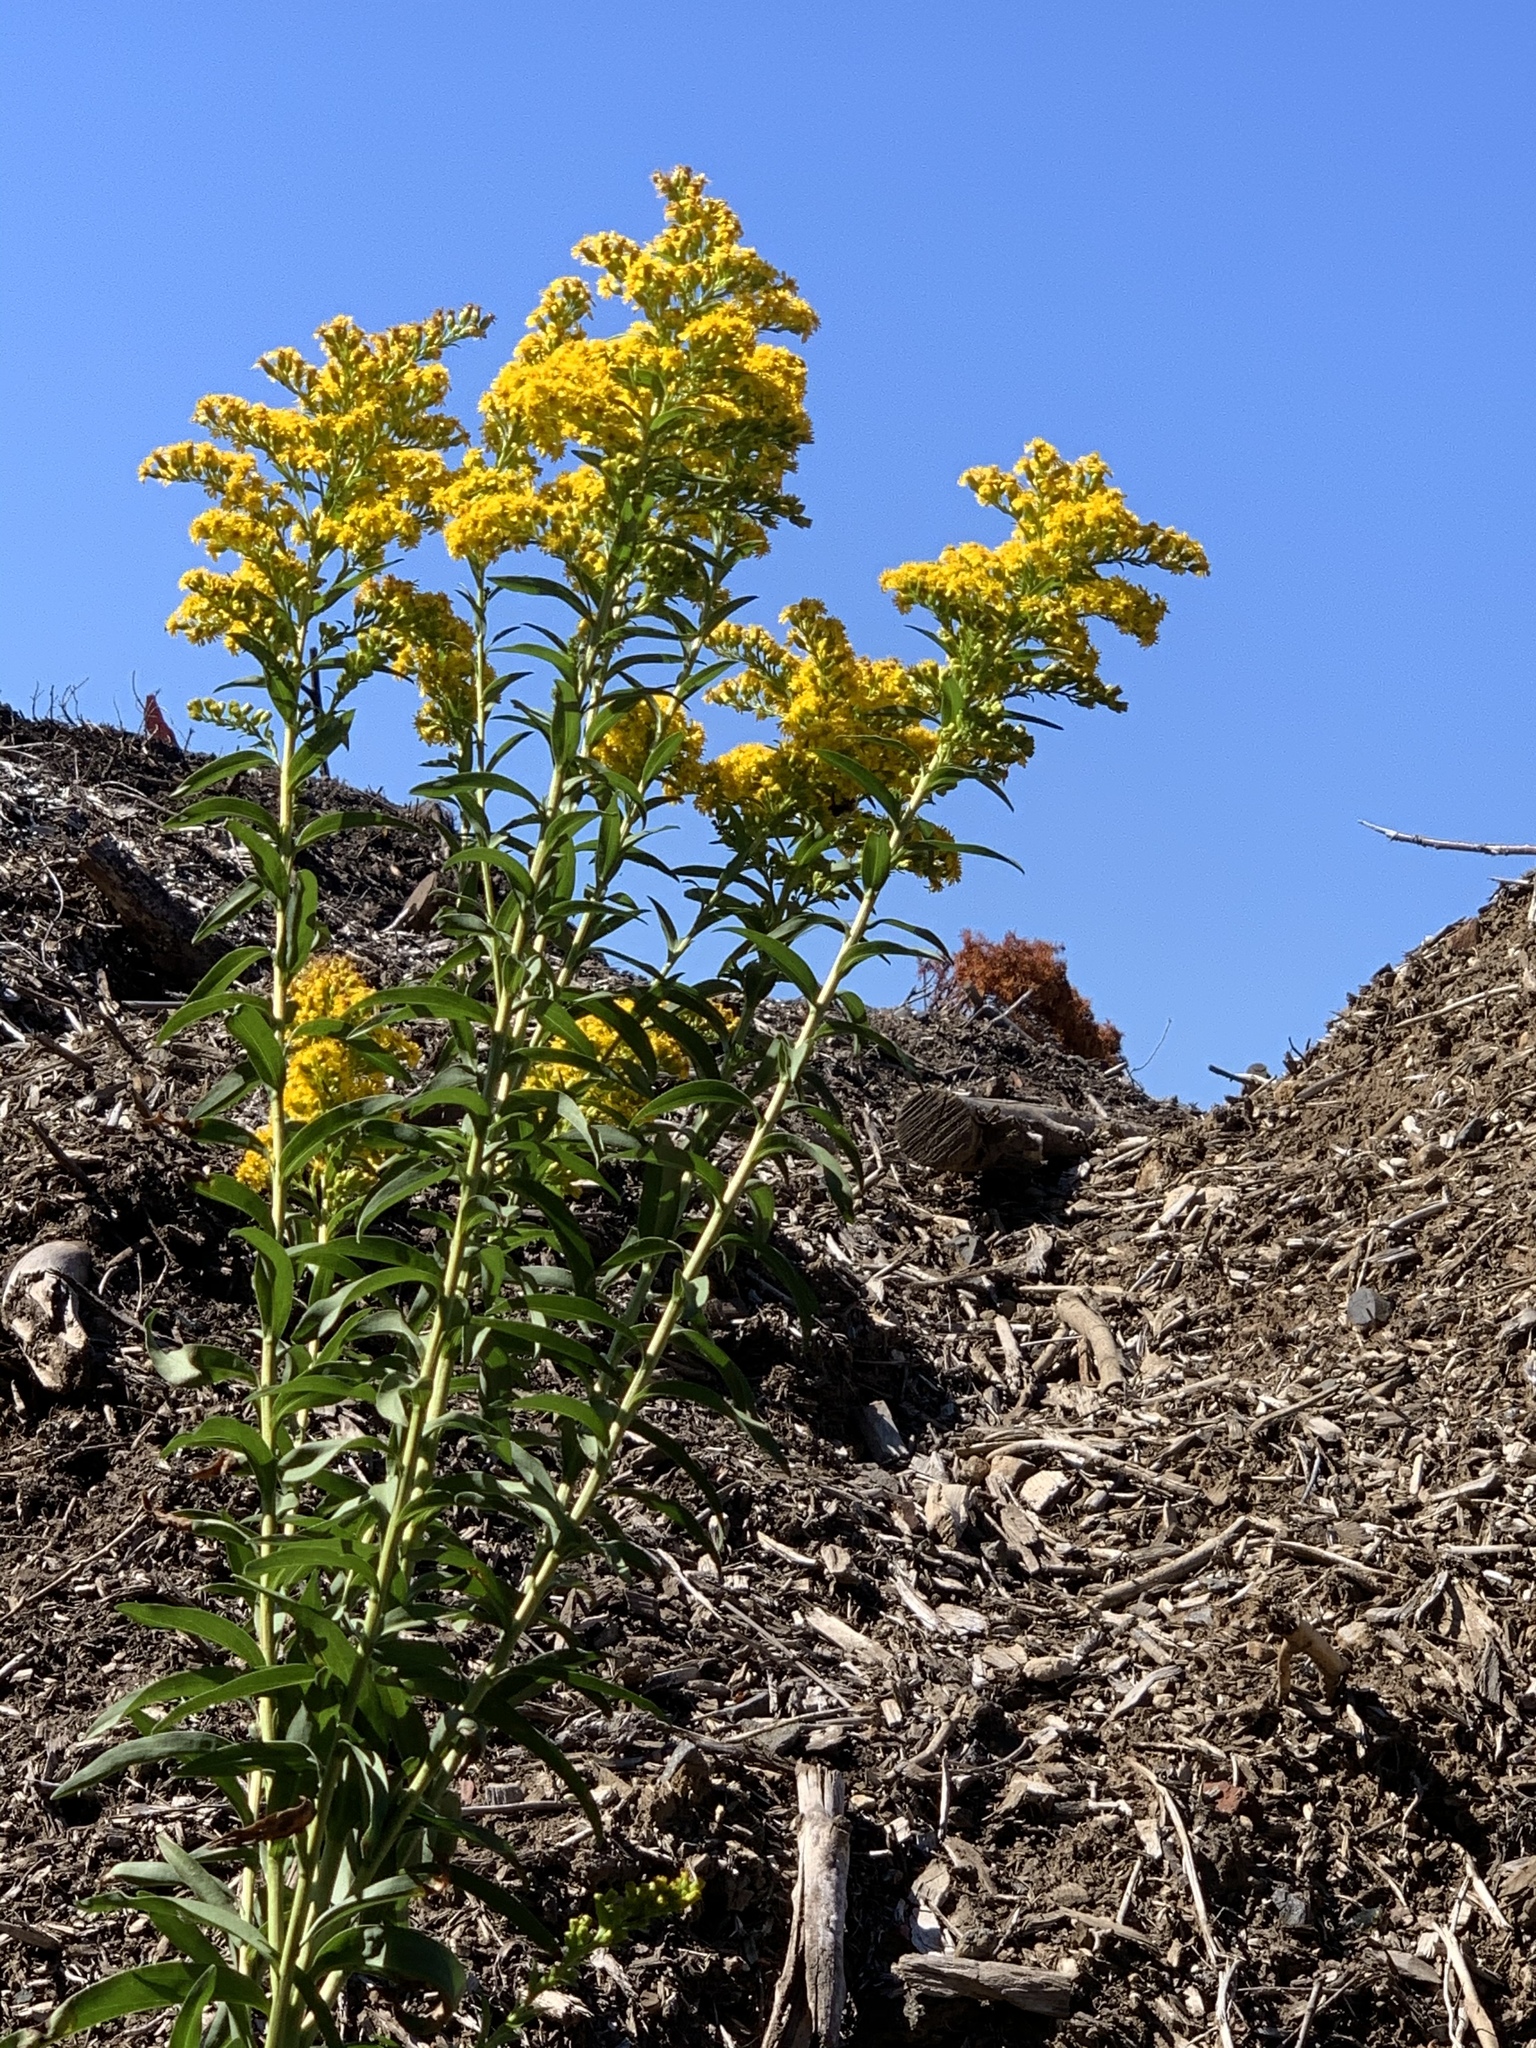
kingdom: Plantae
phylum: Tracheophyta
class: Magnoliopsida
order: Asterales
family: Asteraceae
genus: Solidago
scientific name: Solidago sempervirens
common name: Salt-marsh goldenrod
